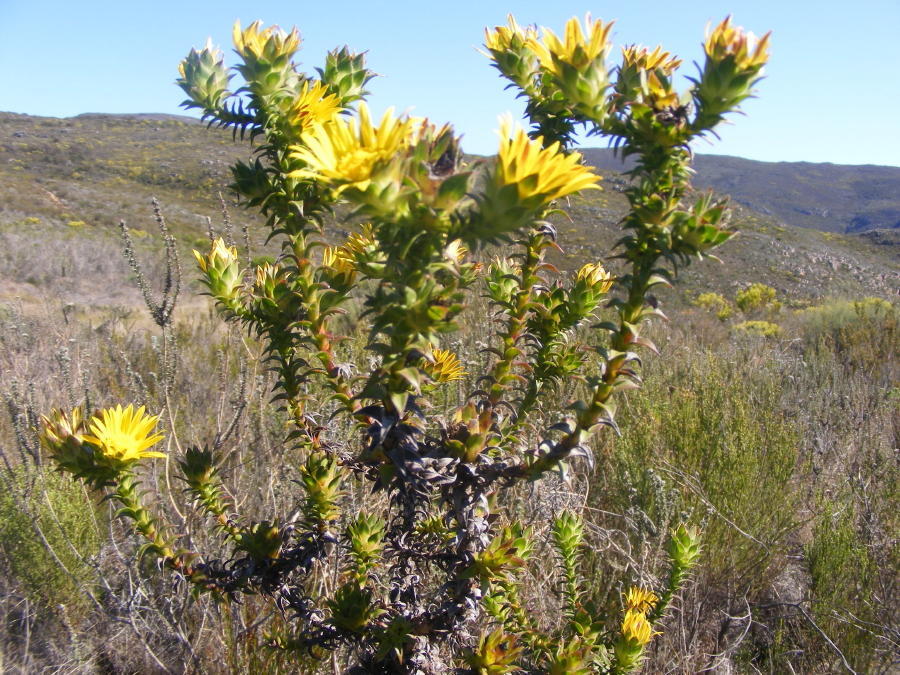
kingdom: Plantae
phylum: Tracheophyta
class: Magnoliopsida
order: Asterales
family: Asteraceae
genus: Oedera
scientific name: Oedera imbricata
